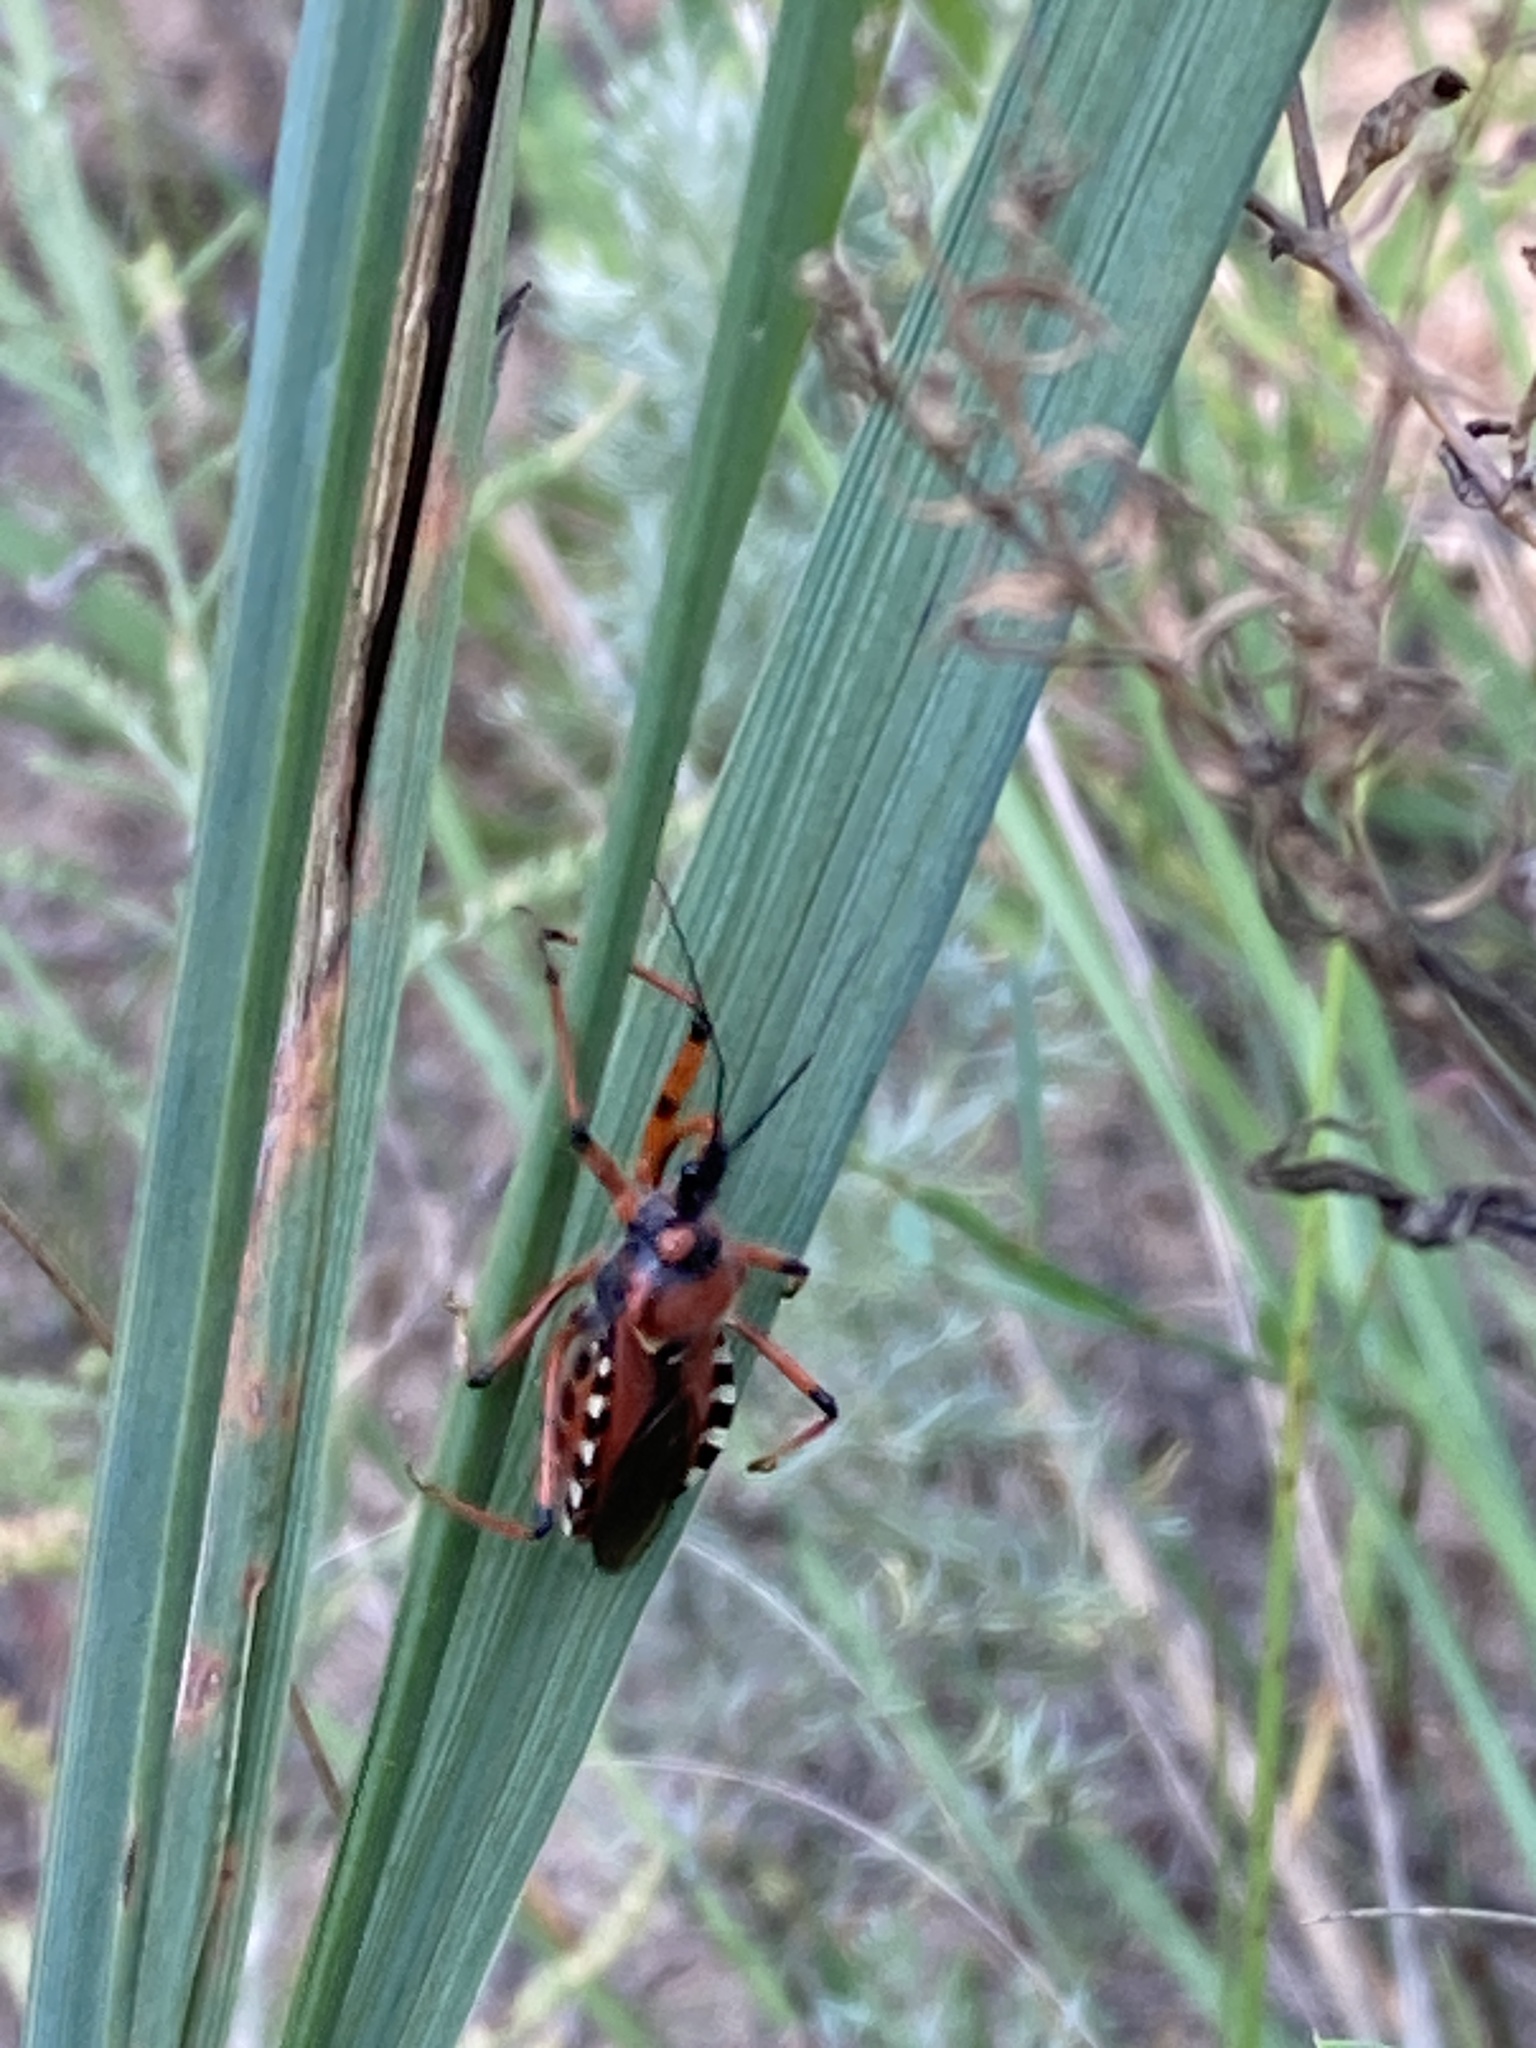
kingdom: Animalia
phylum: Arthropoda
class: Insecta
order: Hemiptera
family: Reduviidae
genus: Rhynocoris
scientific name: Rhynocoris iracundus
